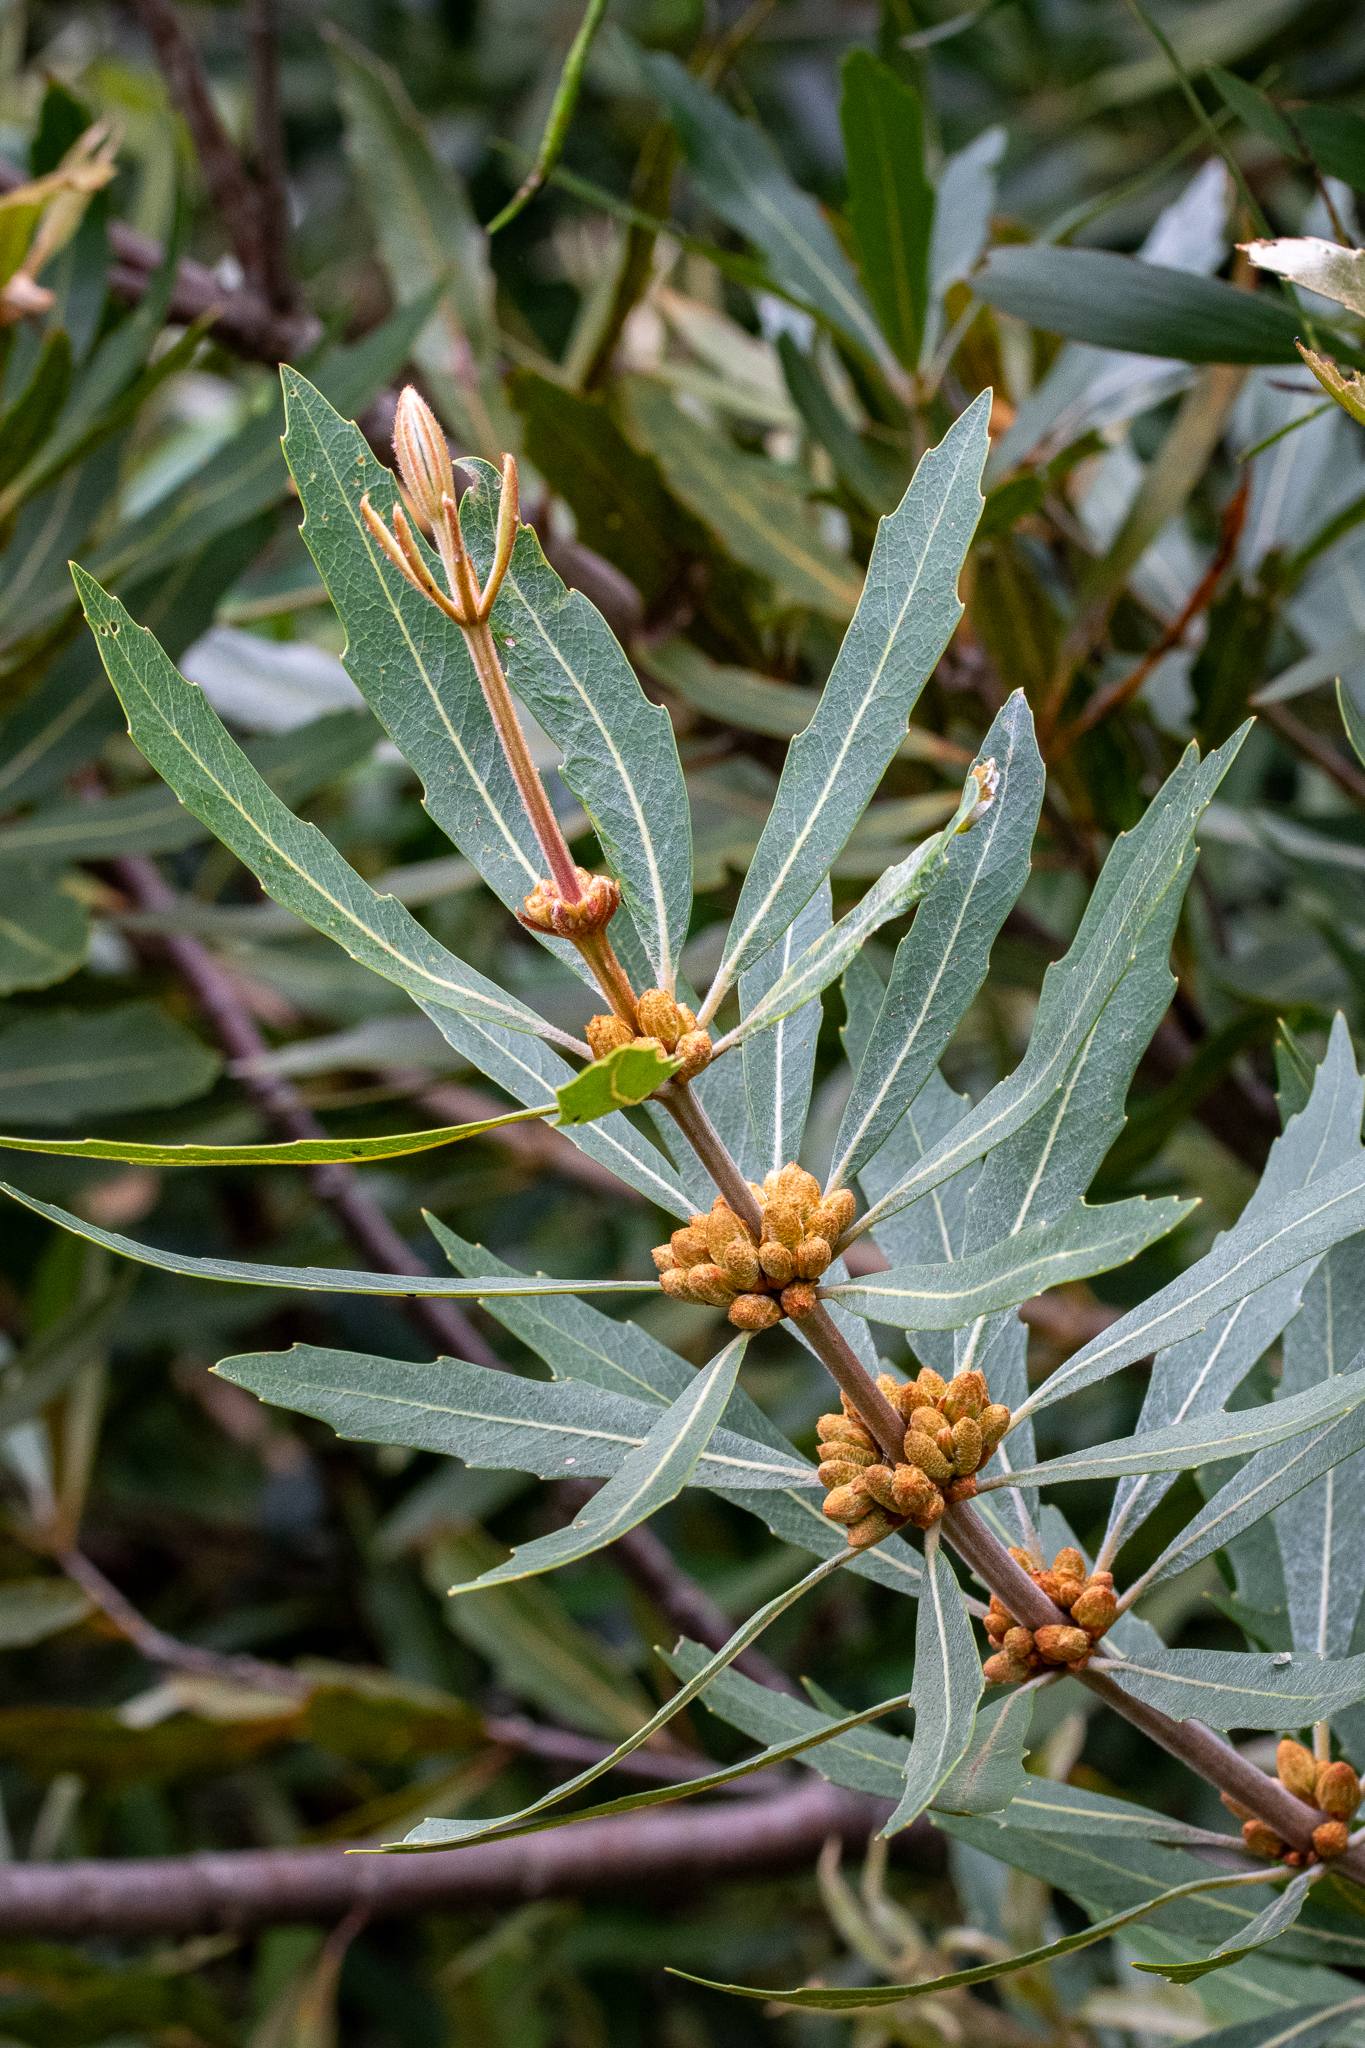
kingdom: Plantae
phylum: Tracheophyta
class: Magnoliopsida
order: Proteales
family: Proteaceae
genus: Brabejum
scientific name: Brabejum stellatifolium
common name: Wild almond
